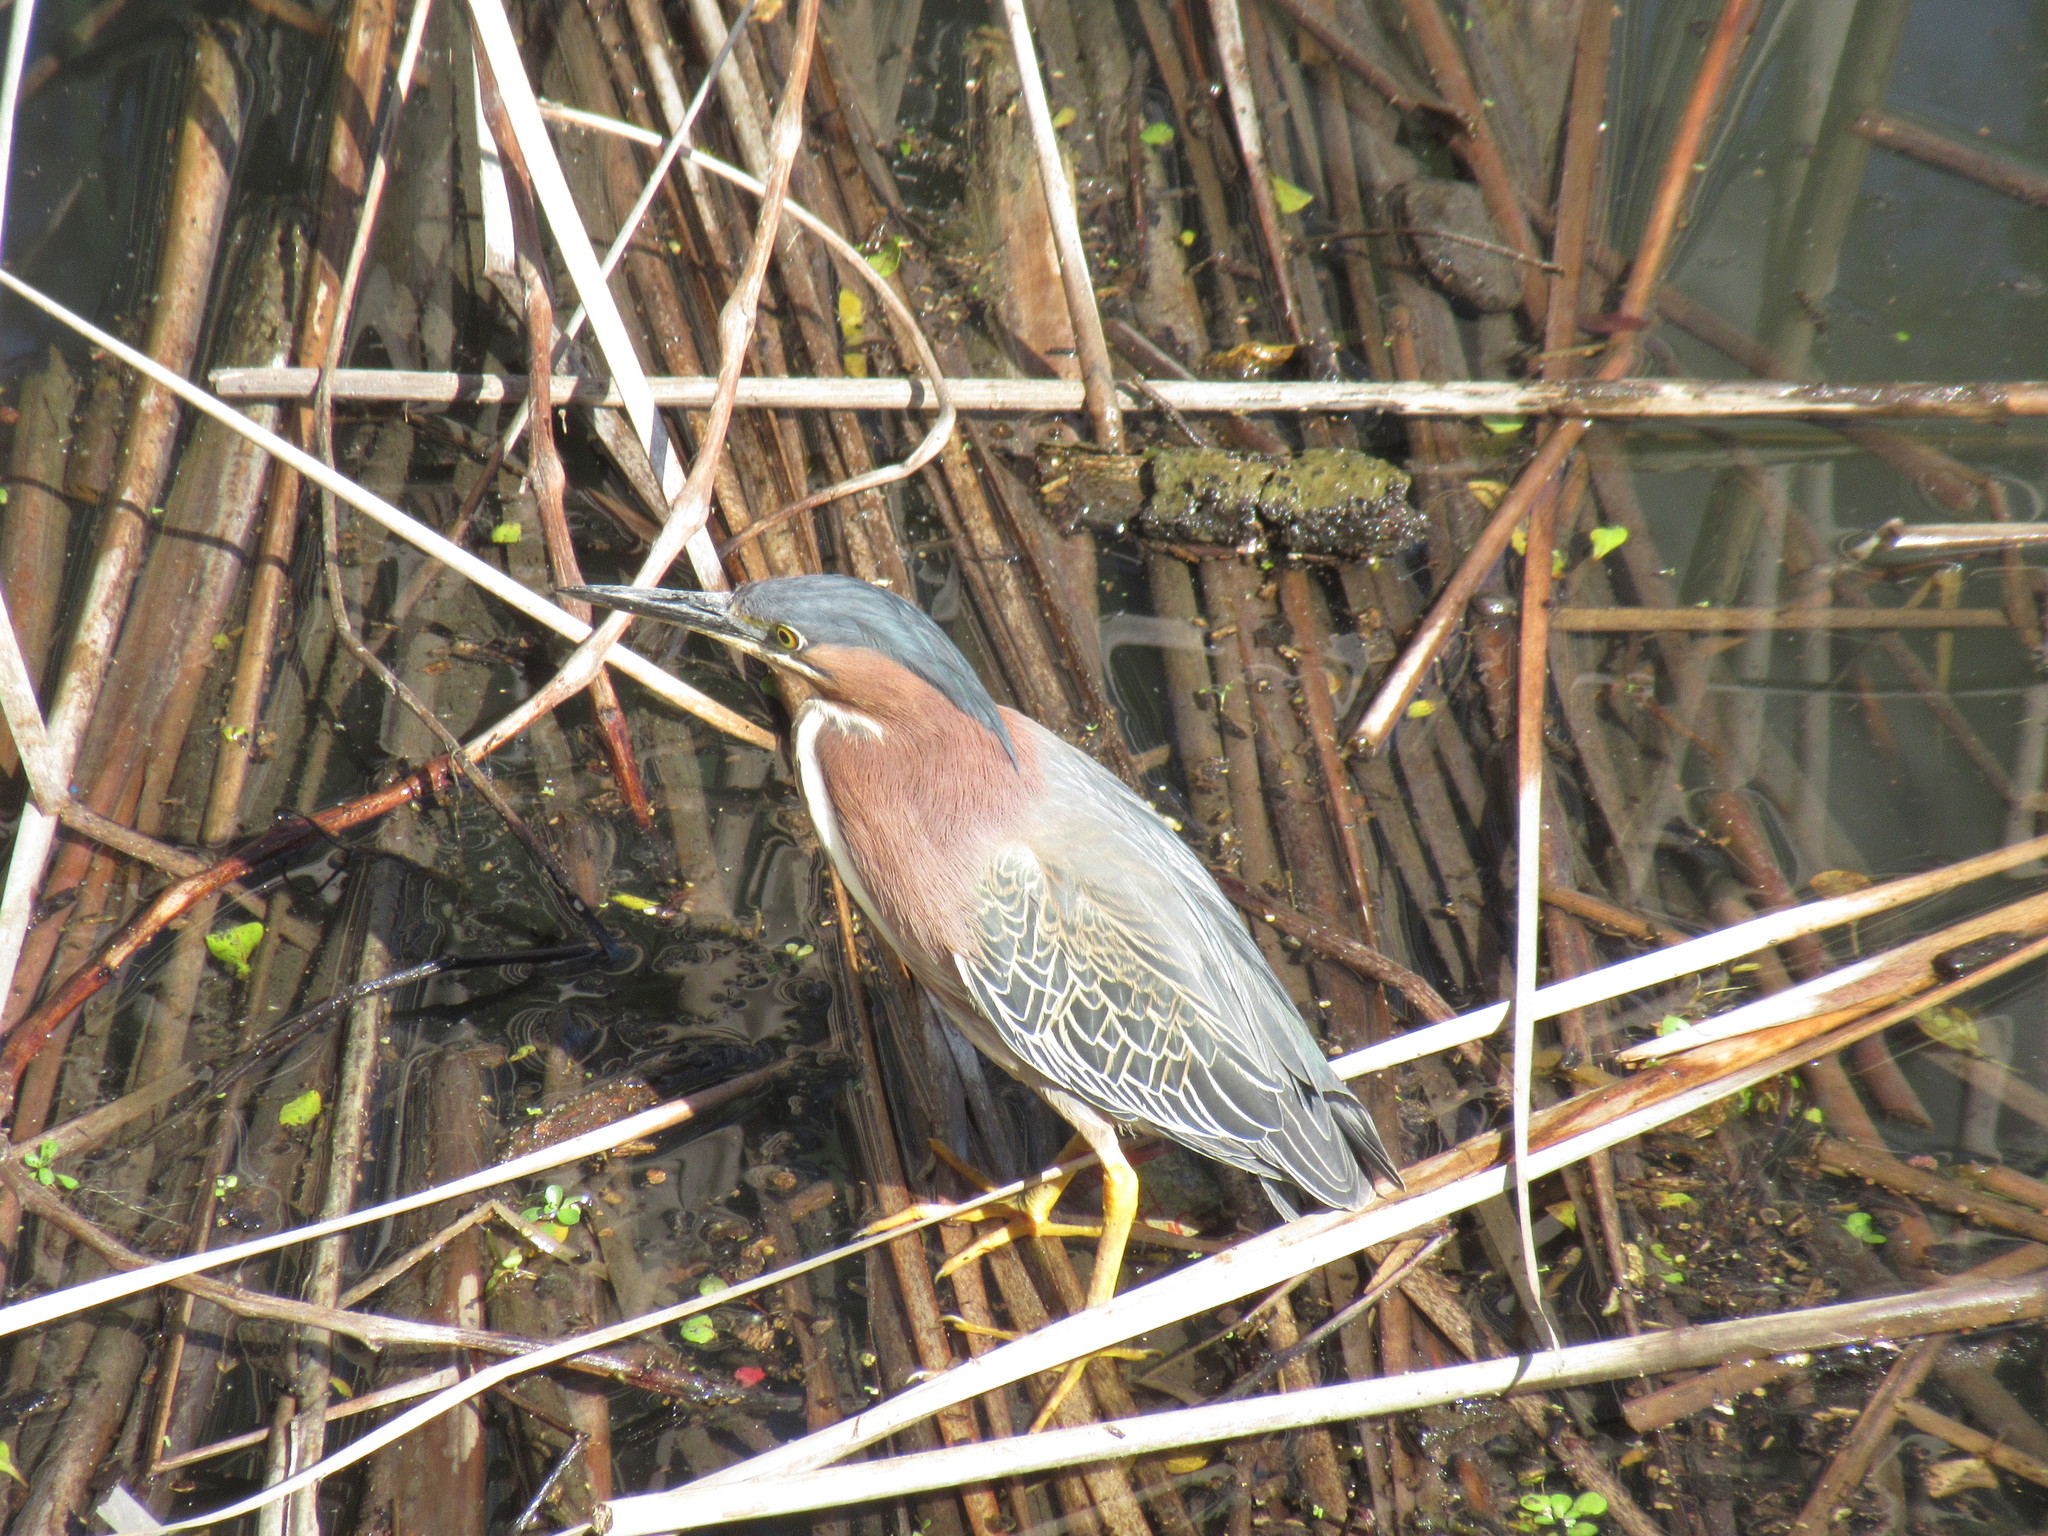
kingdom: Animalia
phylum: Chordata
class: Aves
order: Pelecaniformes
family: Ardeidae
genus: Butorides
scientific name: Butorides virescens
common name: Green heron
